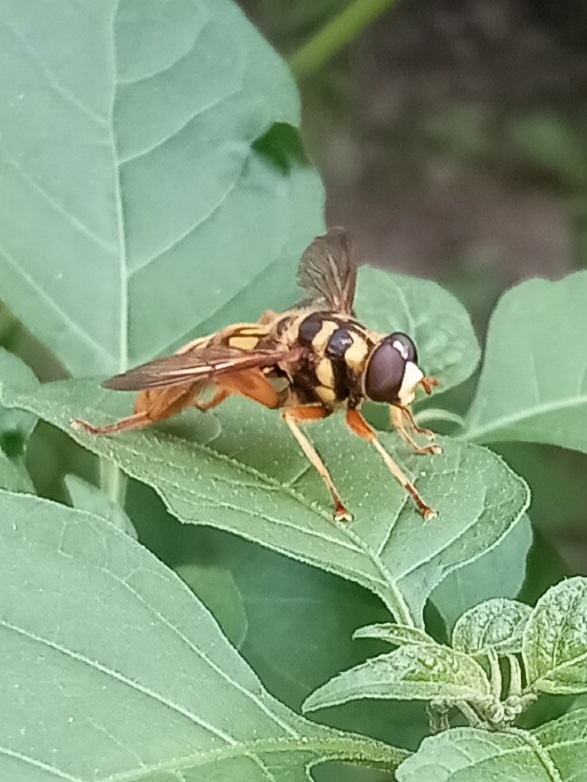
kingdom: Animalia
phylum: Arthropoda
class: Insecta
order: Diptera
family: Syrphidae
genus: Milesia
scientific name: Milesia virginiensis
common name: Virginia giant
